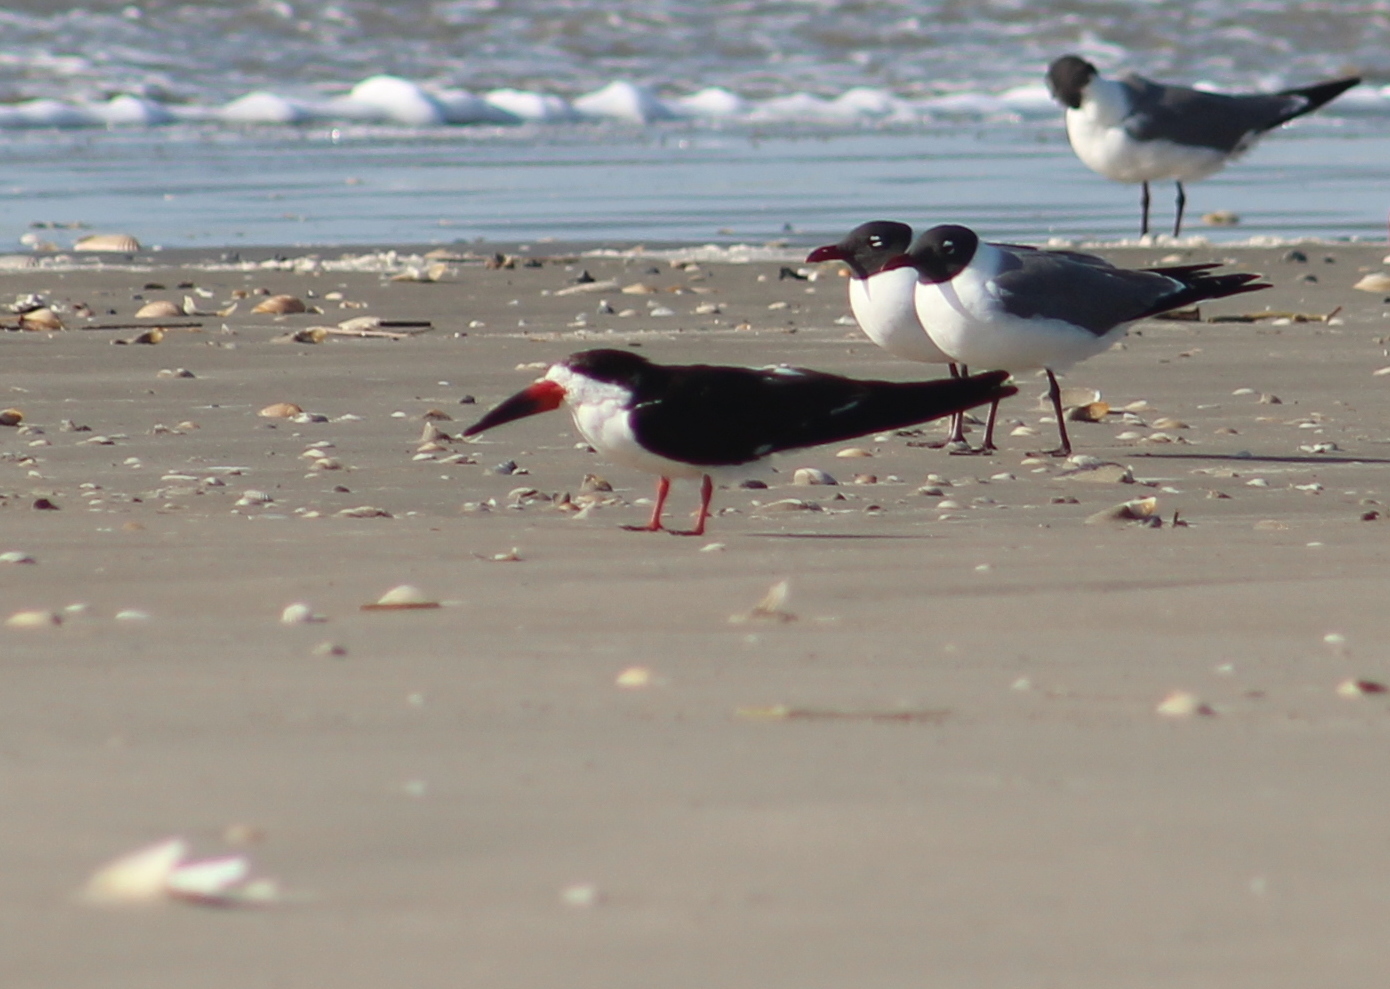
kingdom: Animalia
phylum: Chordata
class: Aves
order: Charadriiformes
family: Laridae
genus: Rynchops
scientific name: Rynchops niger
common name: Black skimmer
